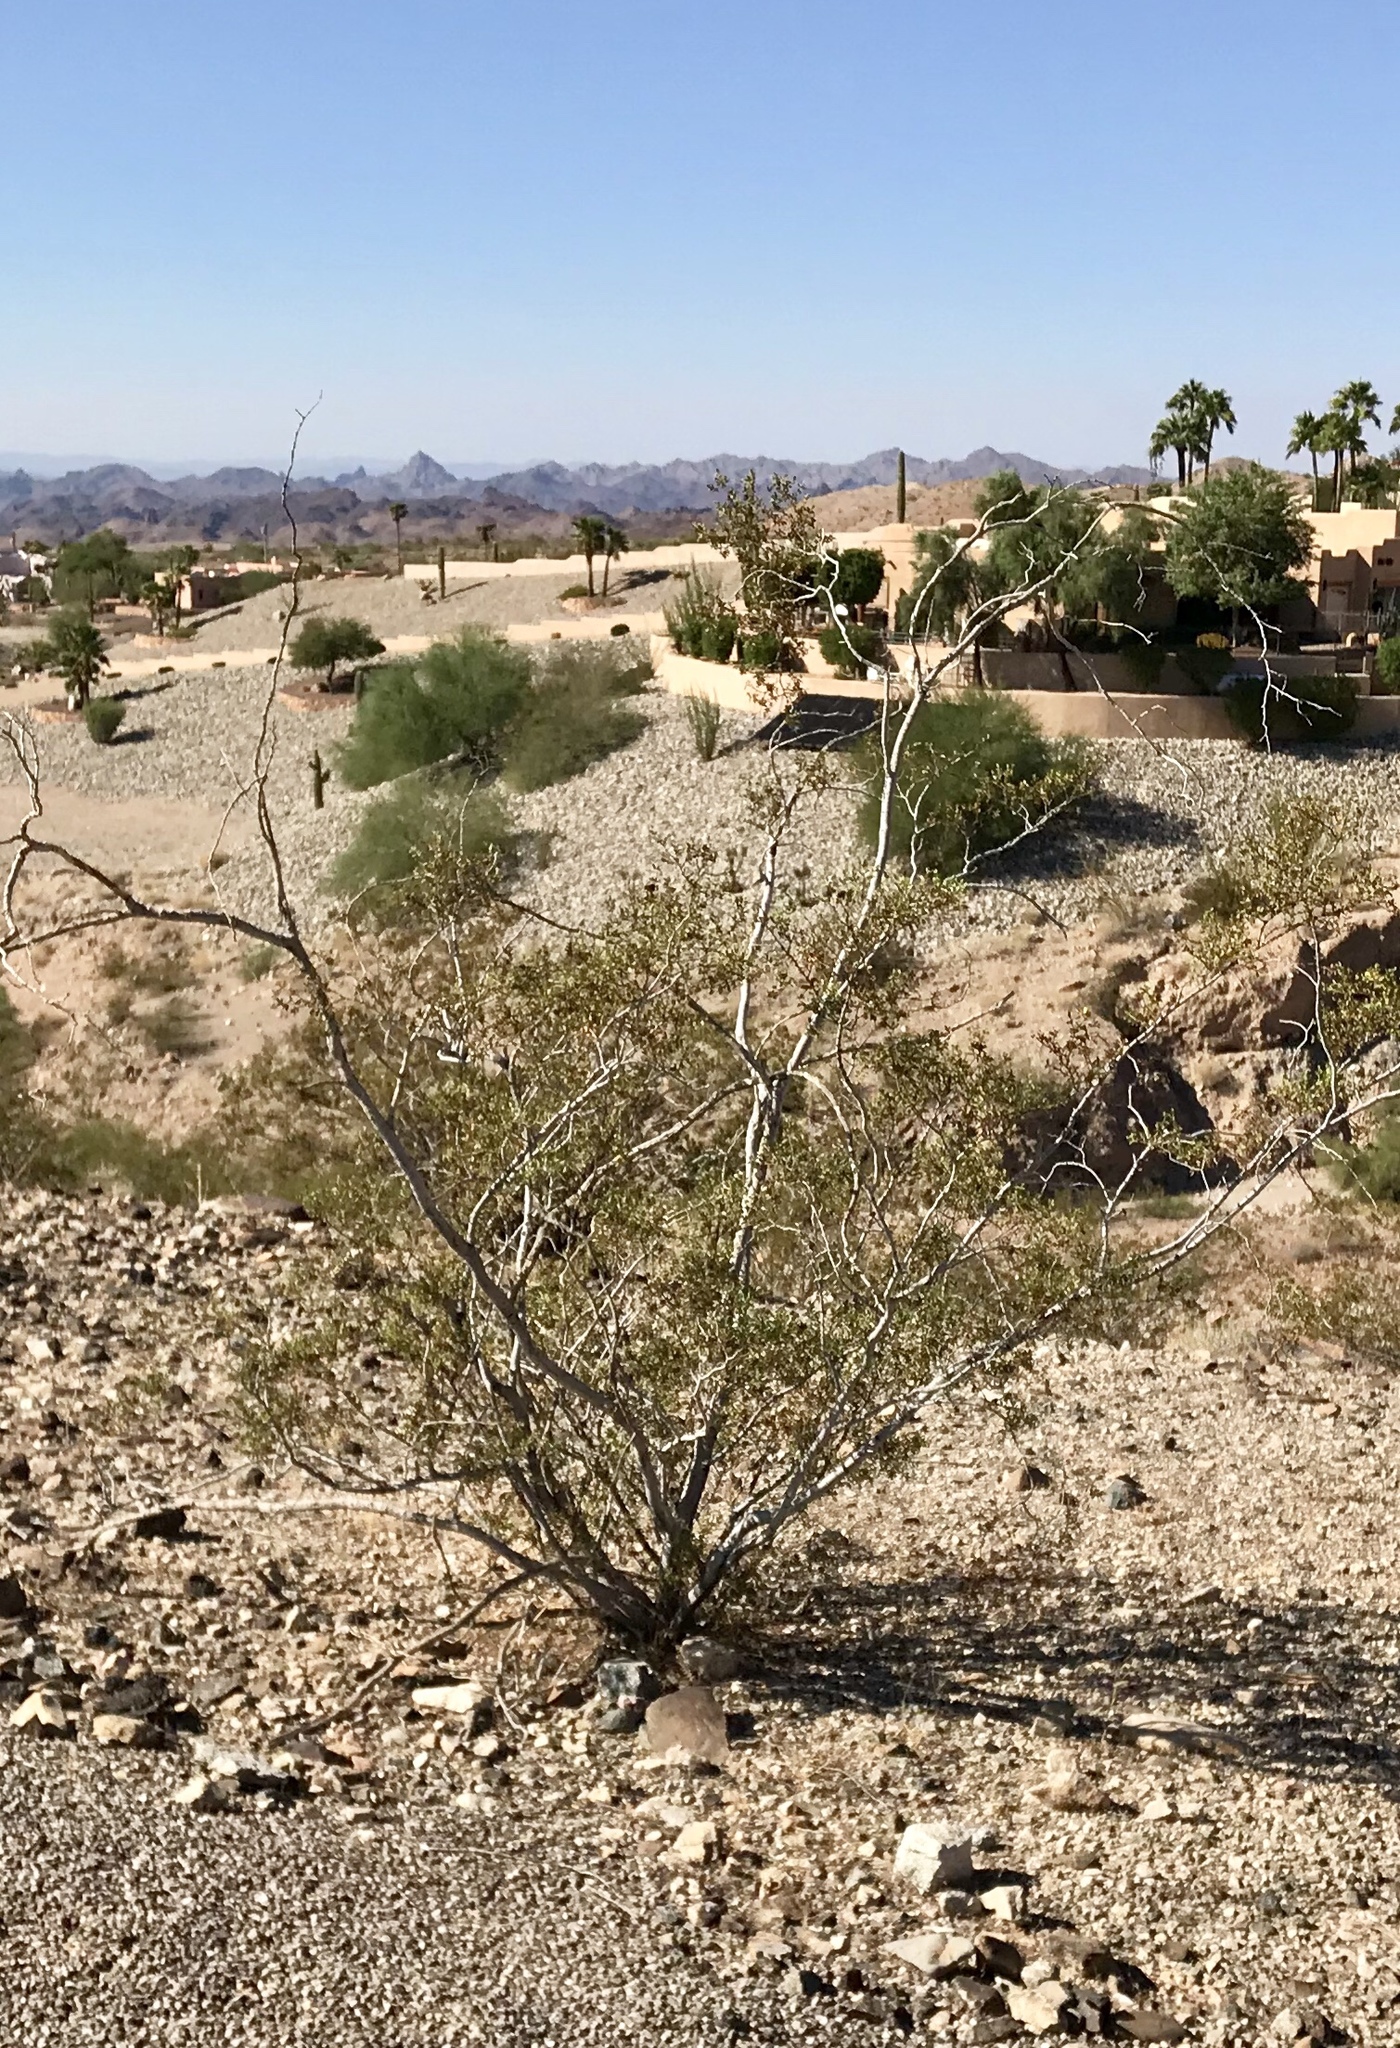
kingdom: Plantae
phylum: Tracheophyta
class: Magnoliopsida
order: Zygophyllales
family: Zygophyllaceae
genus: Larrea
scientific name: Larrea tridentata
